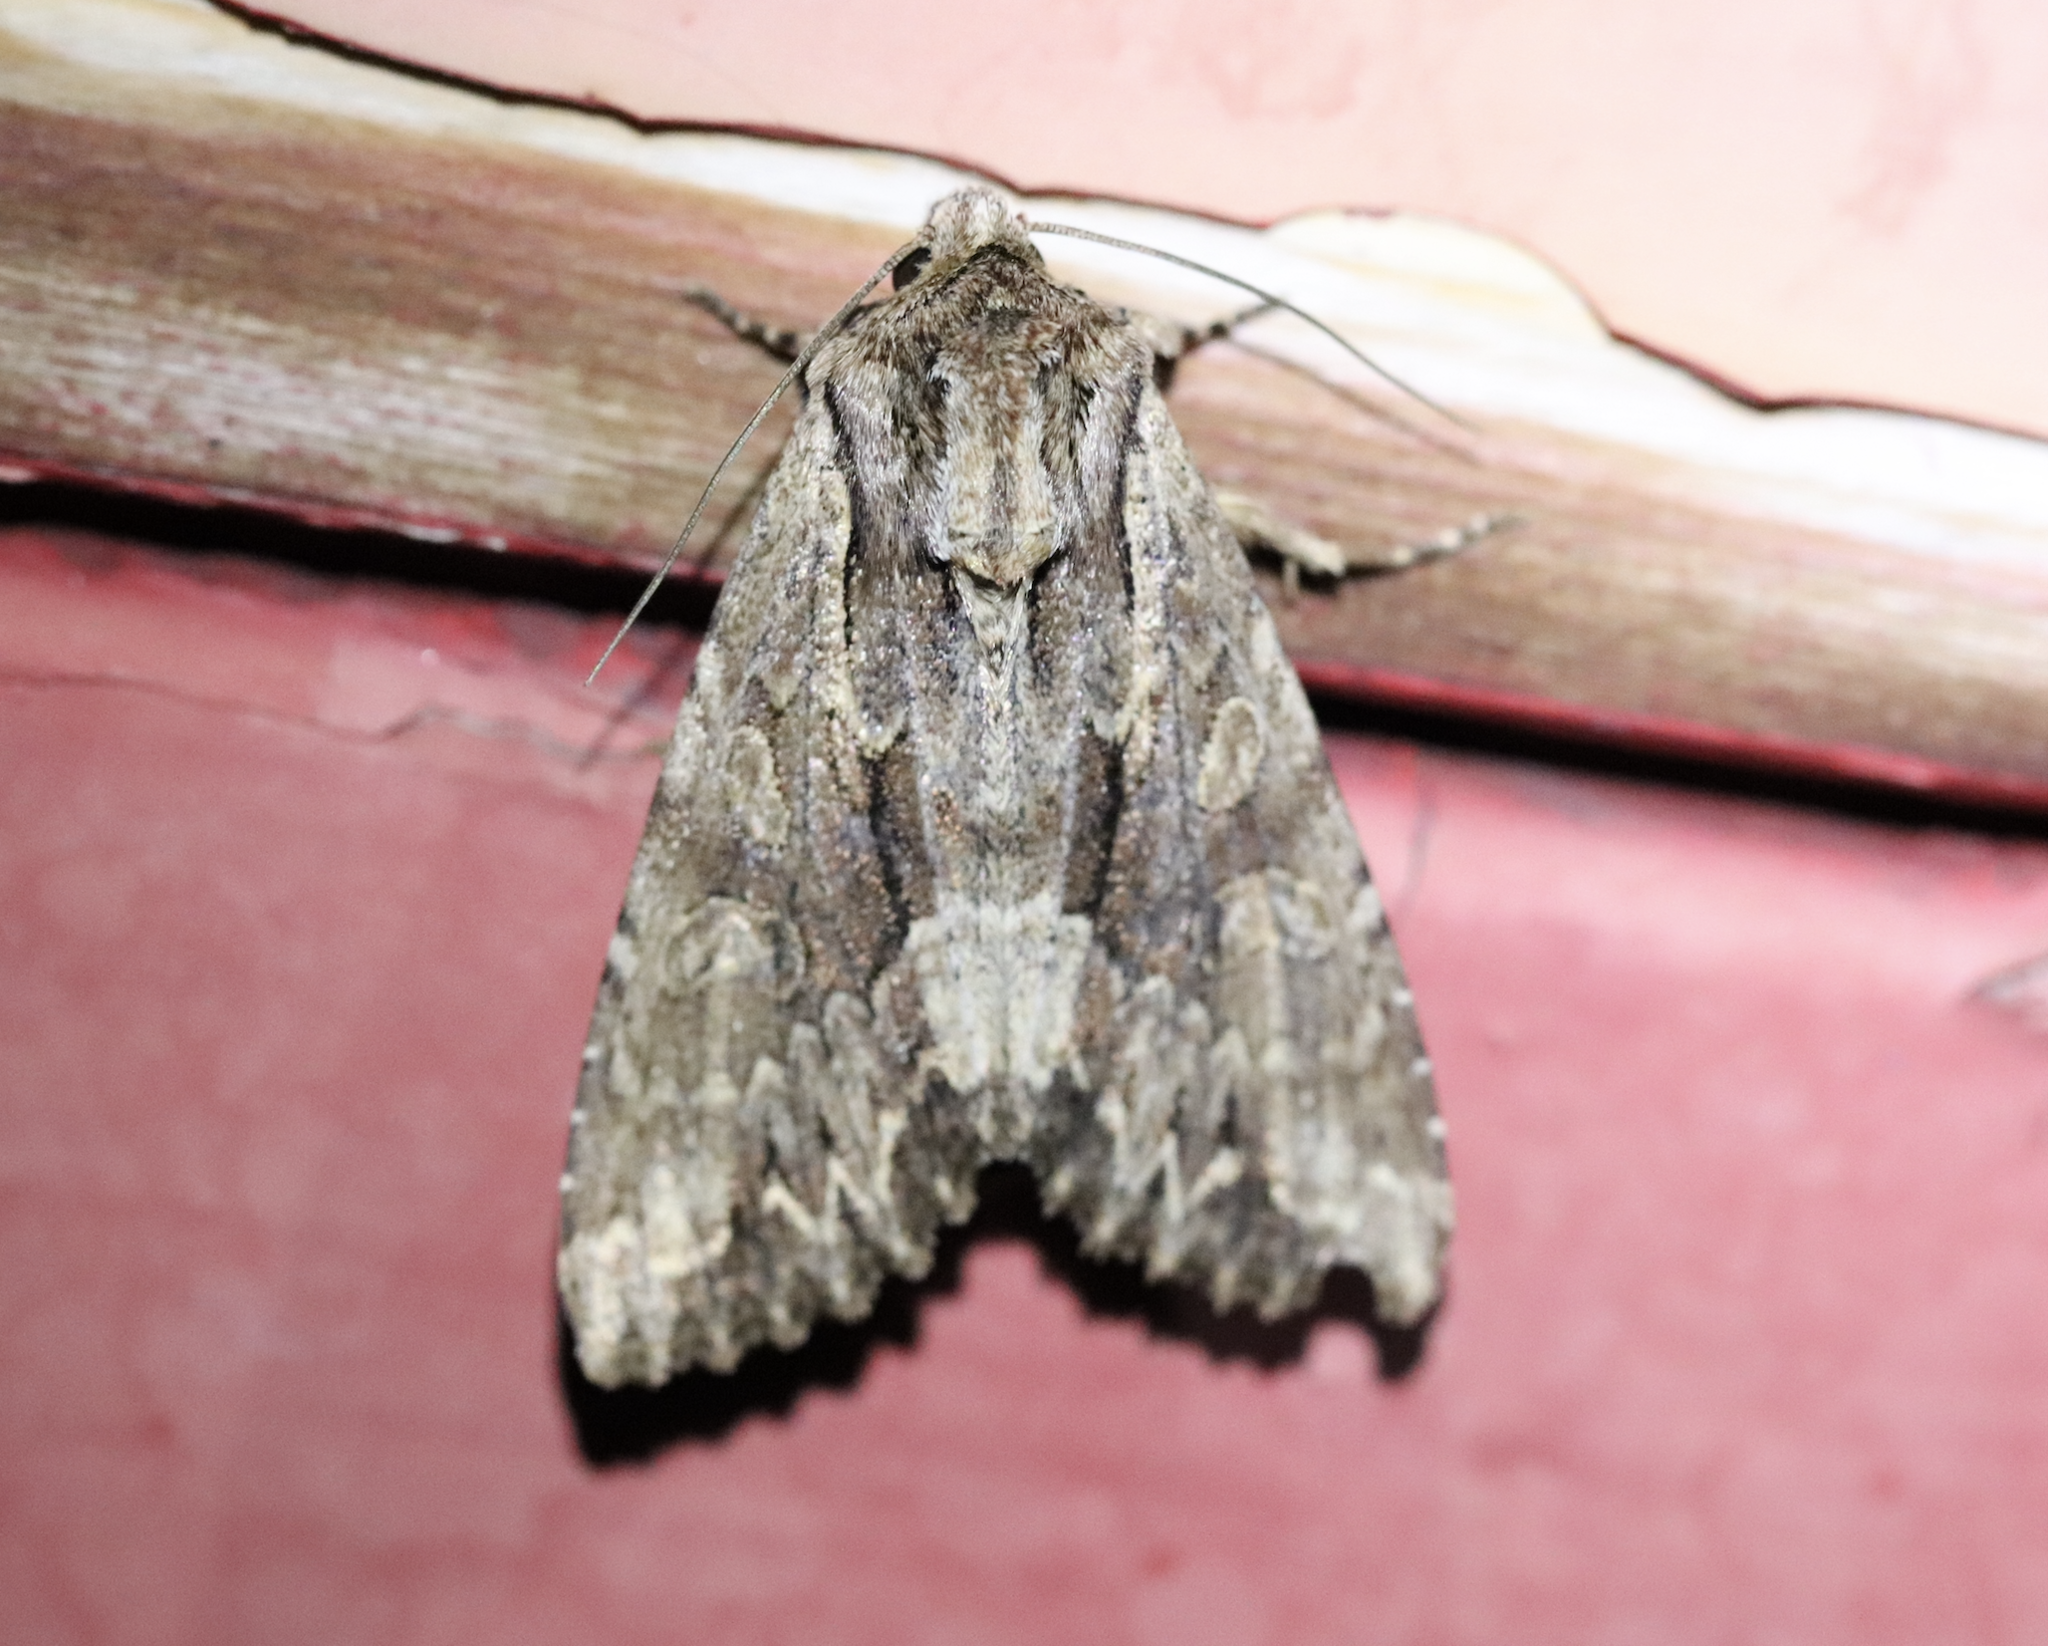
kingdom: Animalia
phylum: Arthropoda
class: Insecta
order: Lepidoptera
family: Noctuidae
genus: Apamea
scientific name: Apamea monoglypha
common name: Dark arches
